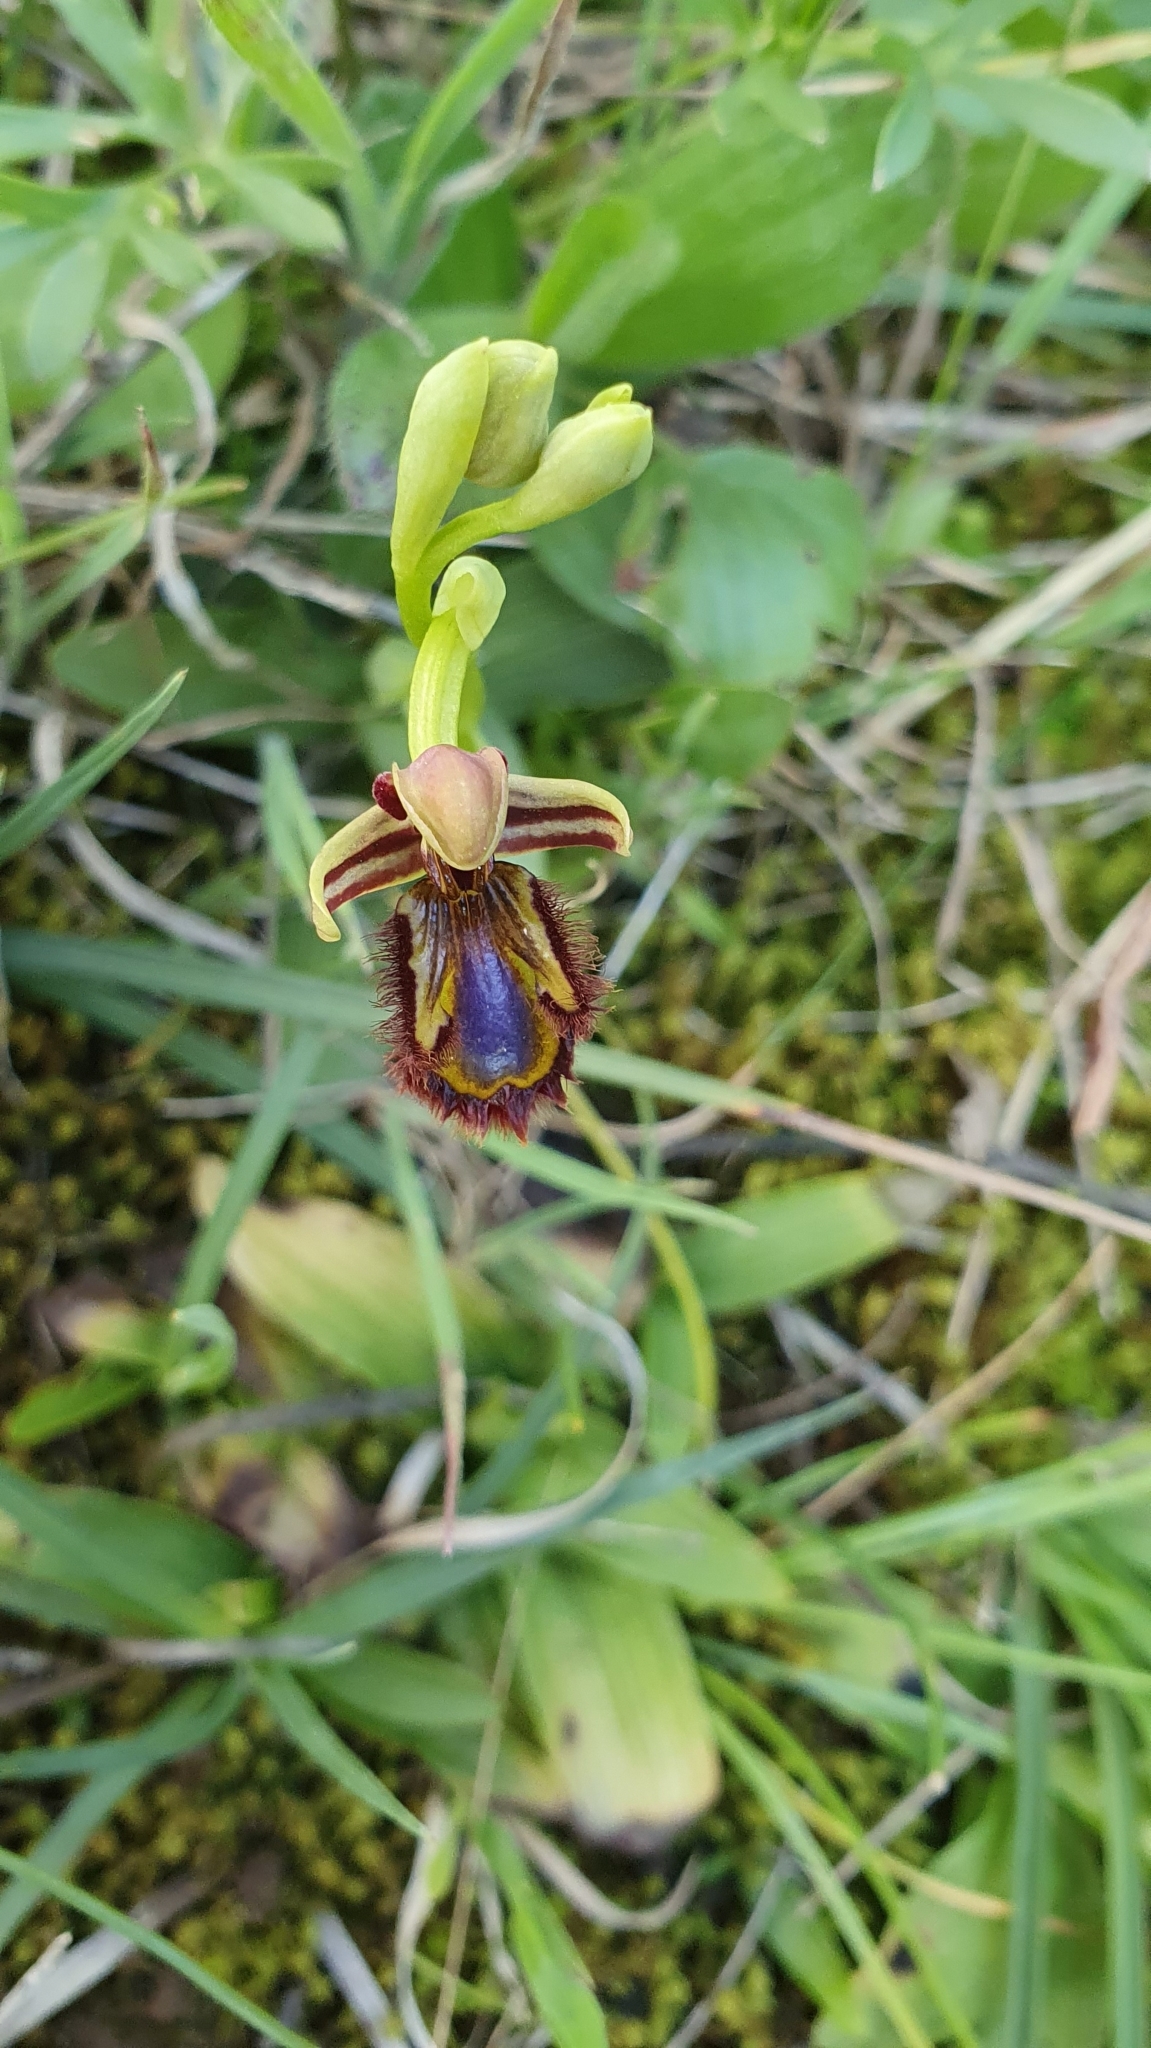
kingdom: Plantae
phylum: Tracheophyta
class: Liliopsida
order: Asparagales
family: Orchidaceae
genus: Ophrys
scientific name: Ophrys speculum
